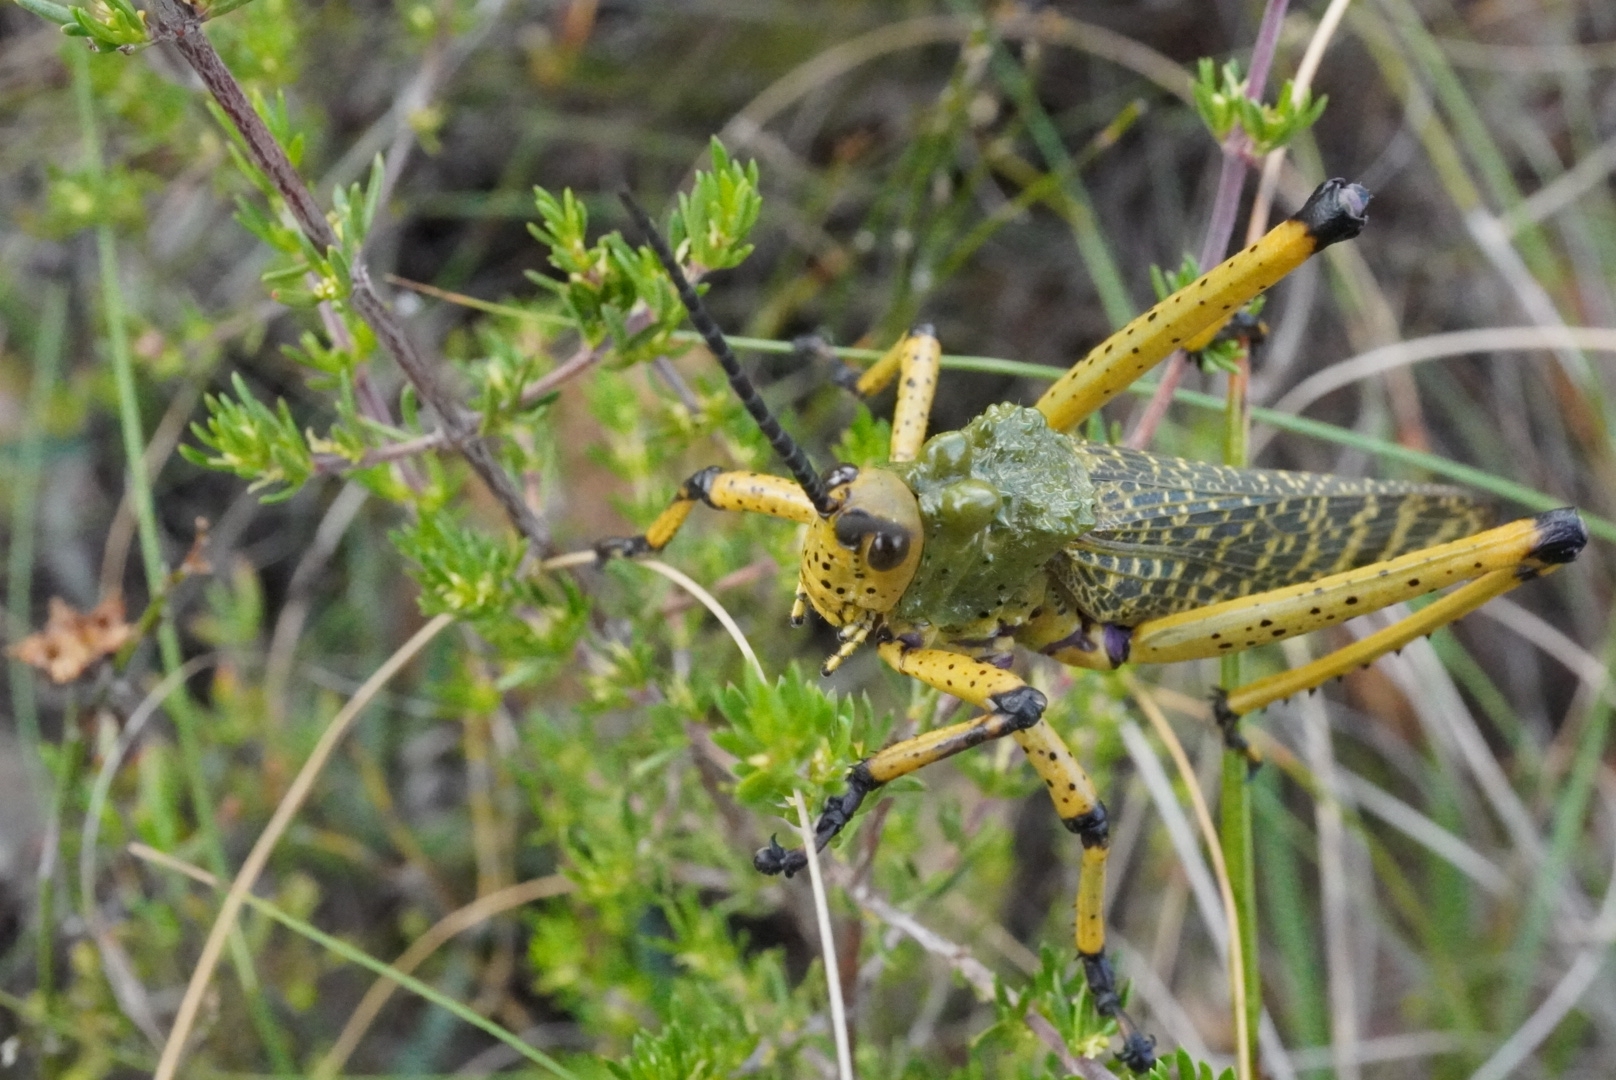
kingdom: Animalia
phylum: Arthropoda
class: Insecta
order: Orthoptera
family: Pyrgomorphidae
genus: Phymateus
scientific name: Phymateus leprosus
